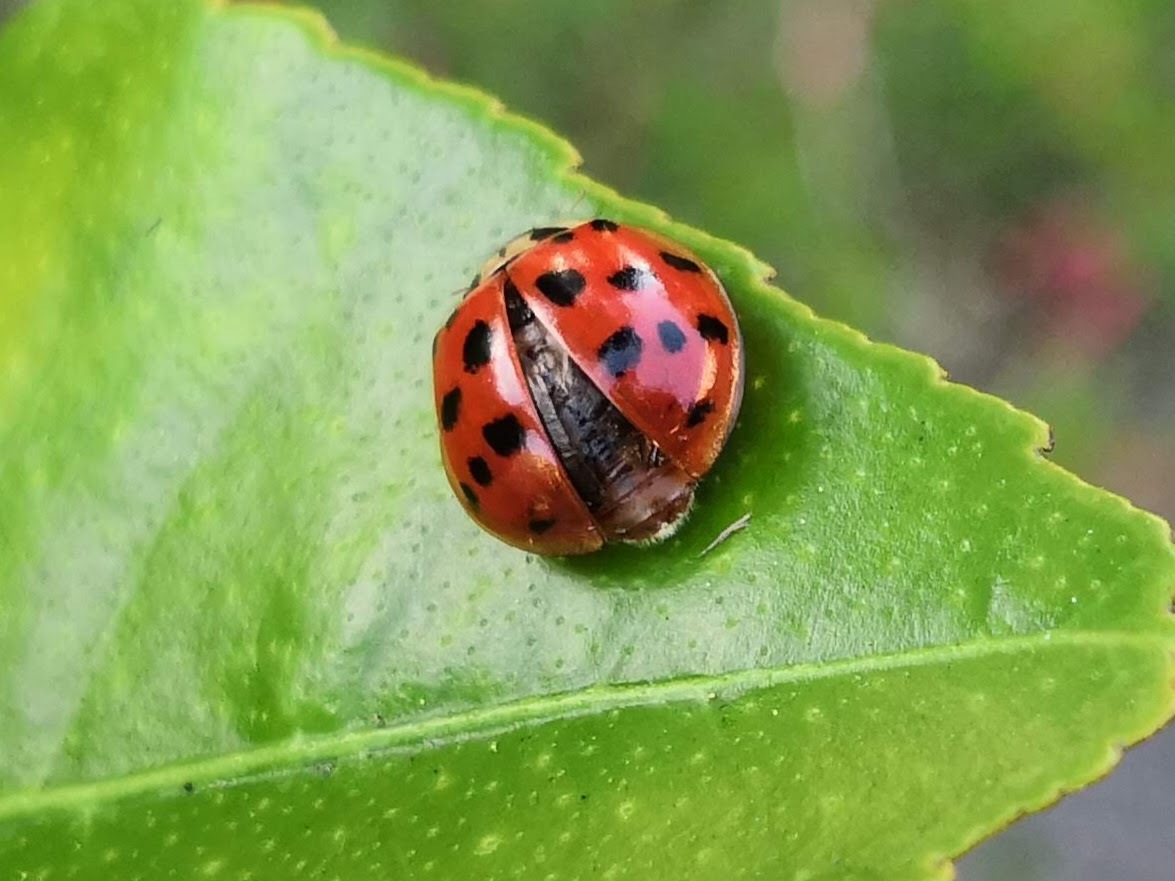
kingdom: Animalia
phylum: Arthropoda
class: Insecta
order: Coleoptera
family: Coccinellidae
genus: Harmonia
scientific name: Harmonia axyridis
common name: Harlequin ladybird
